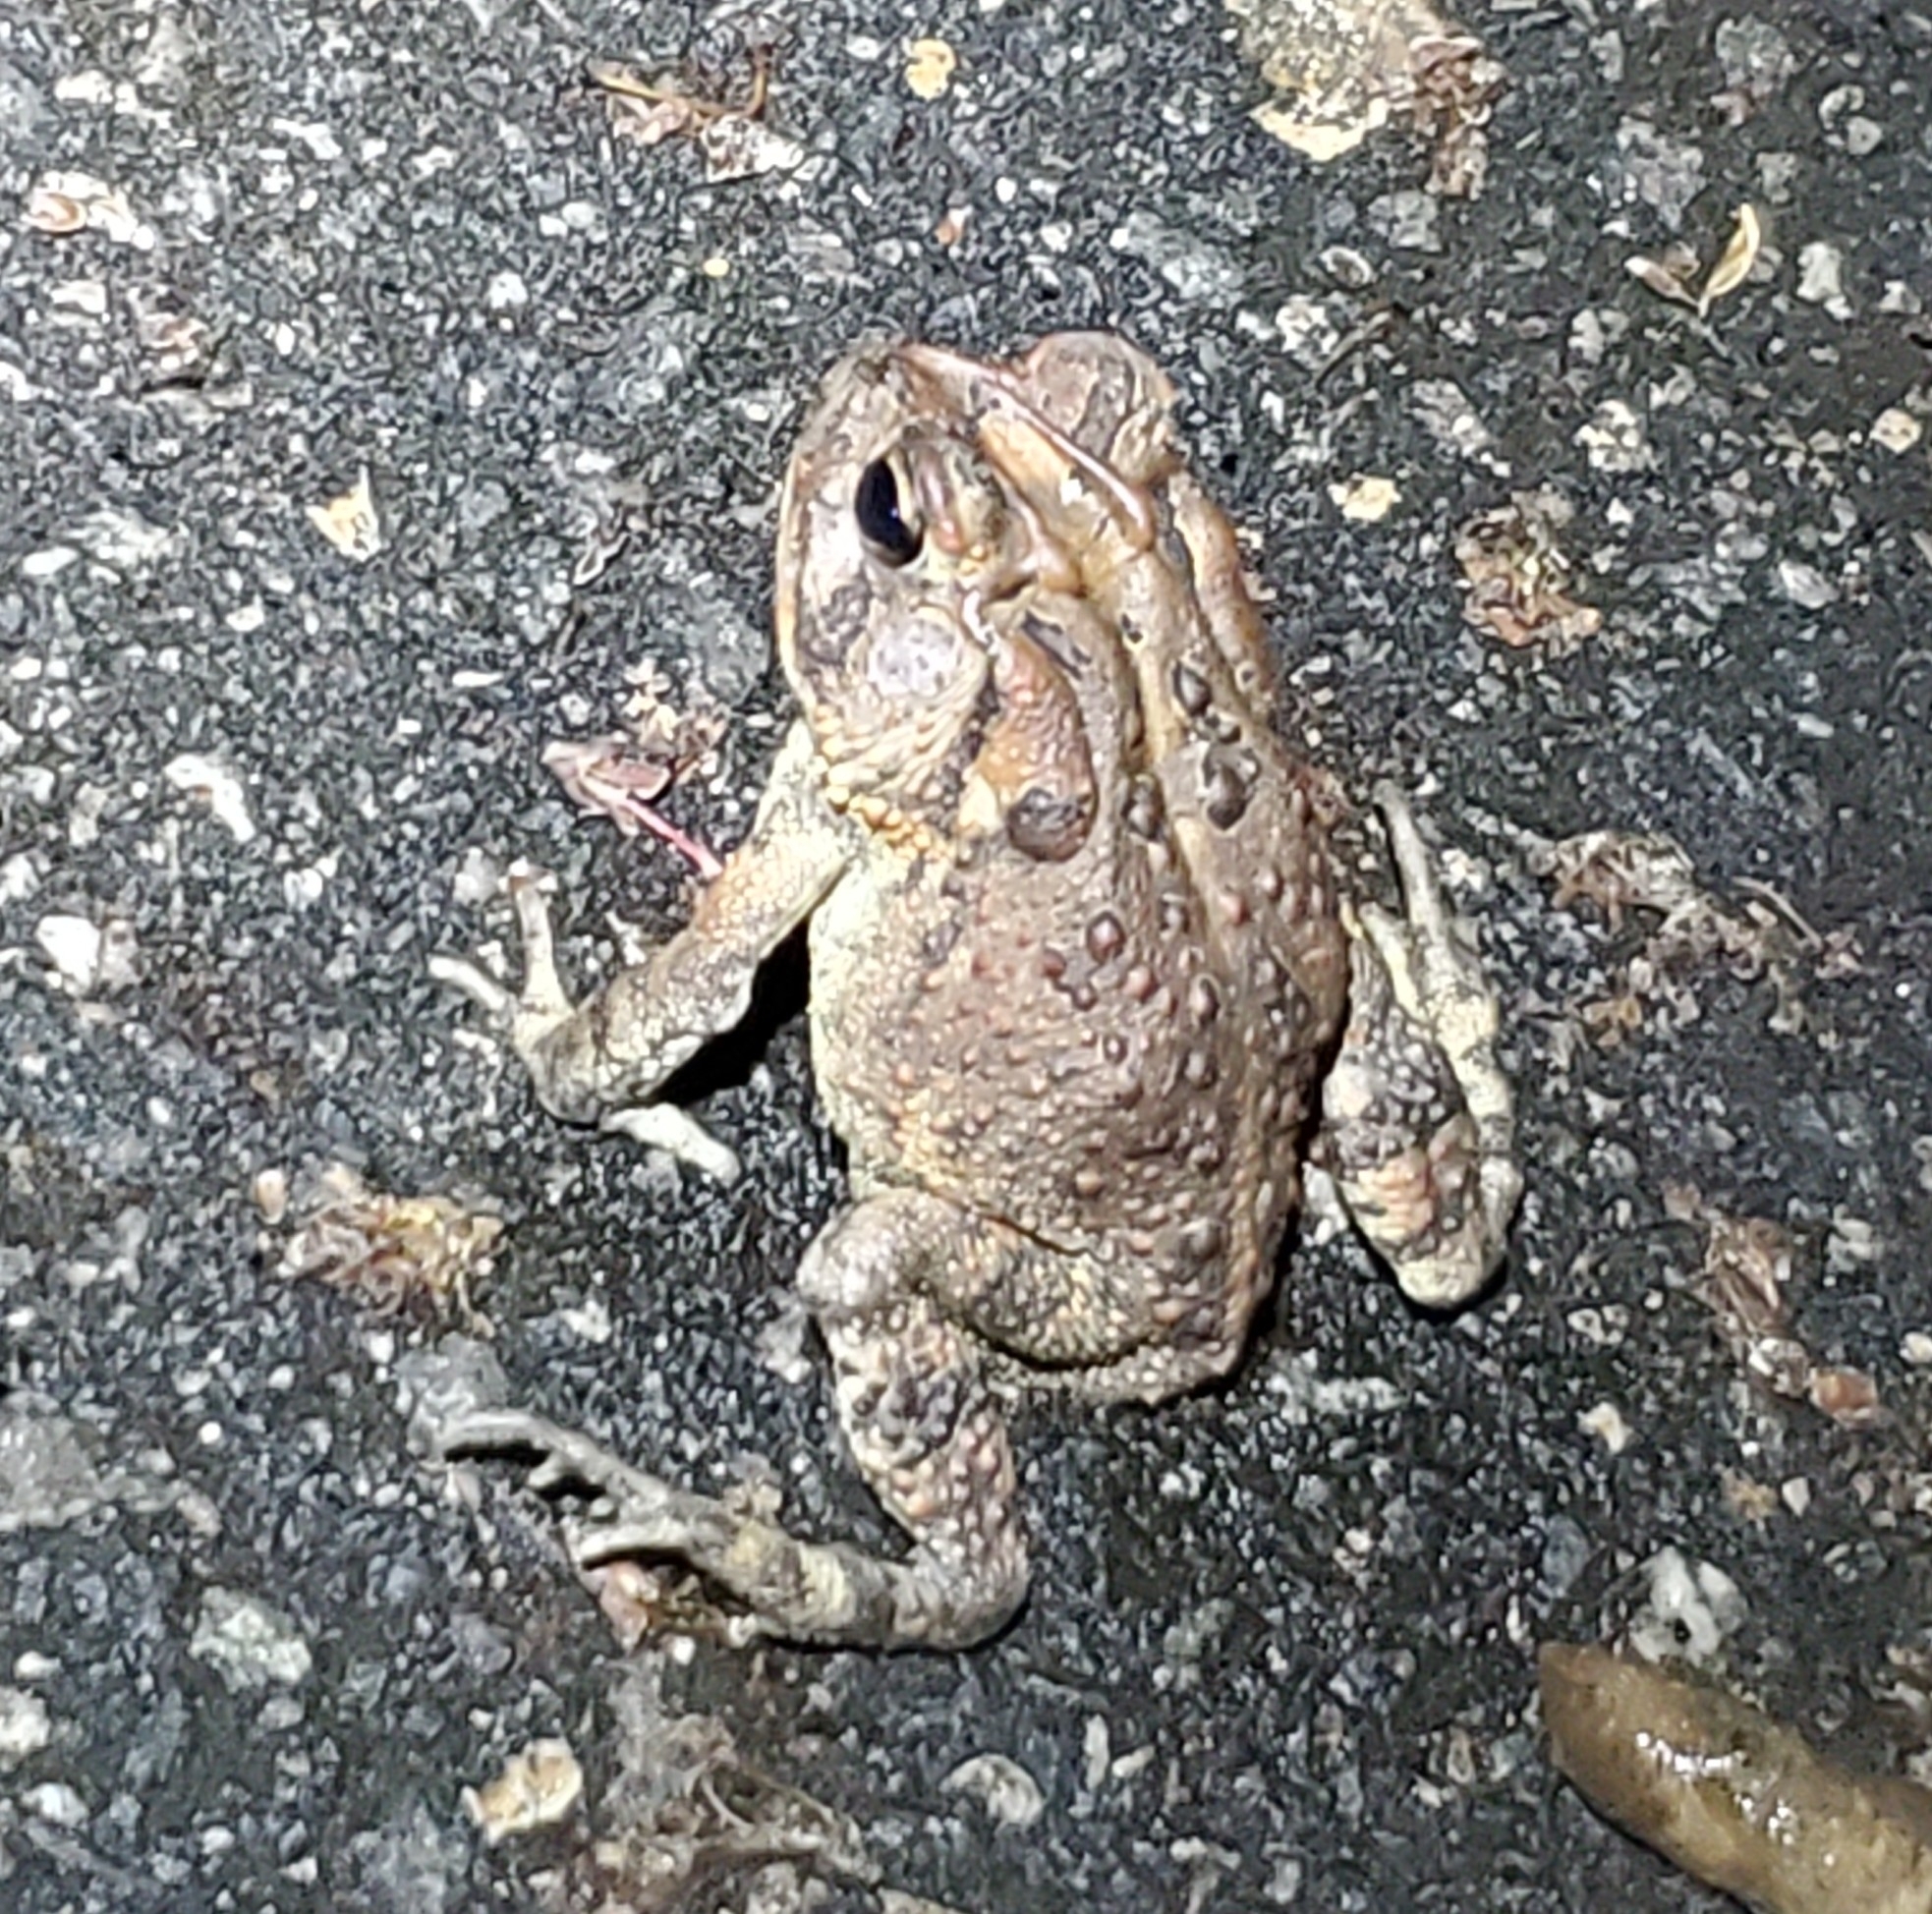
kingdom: Animalia
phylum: Chordata
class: Amphibia
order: Anura
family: Bufonidae
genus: Anaxyrus
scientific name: Anaxyrus terrestris
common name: Southern toad
